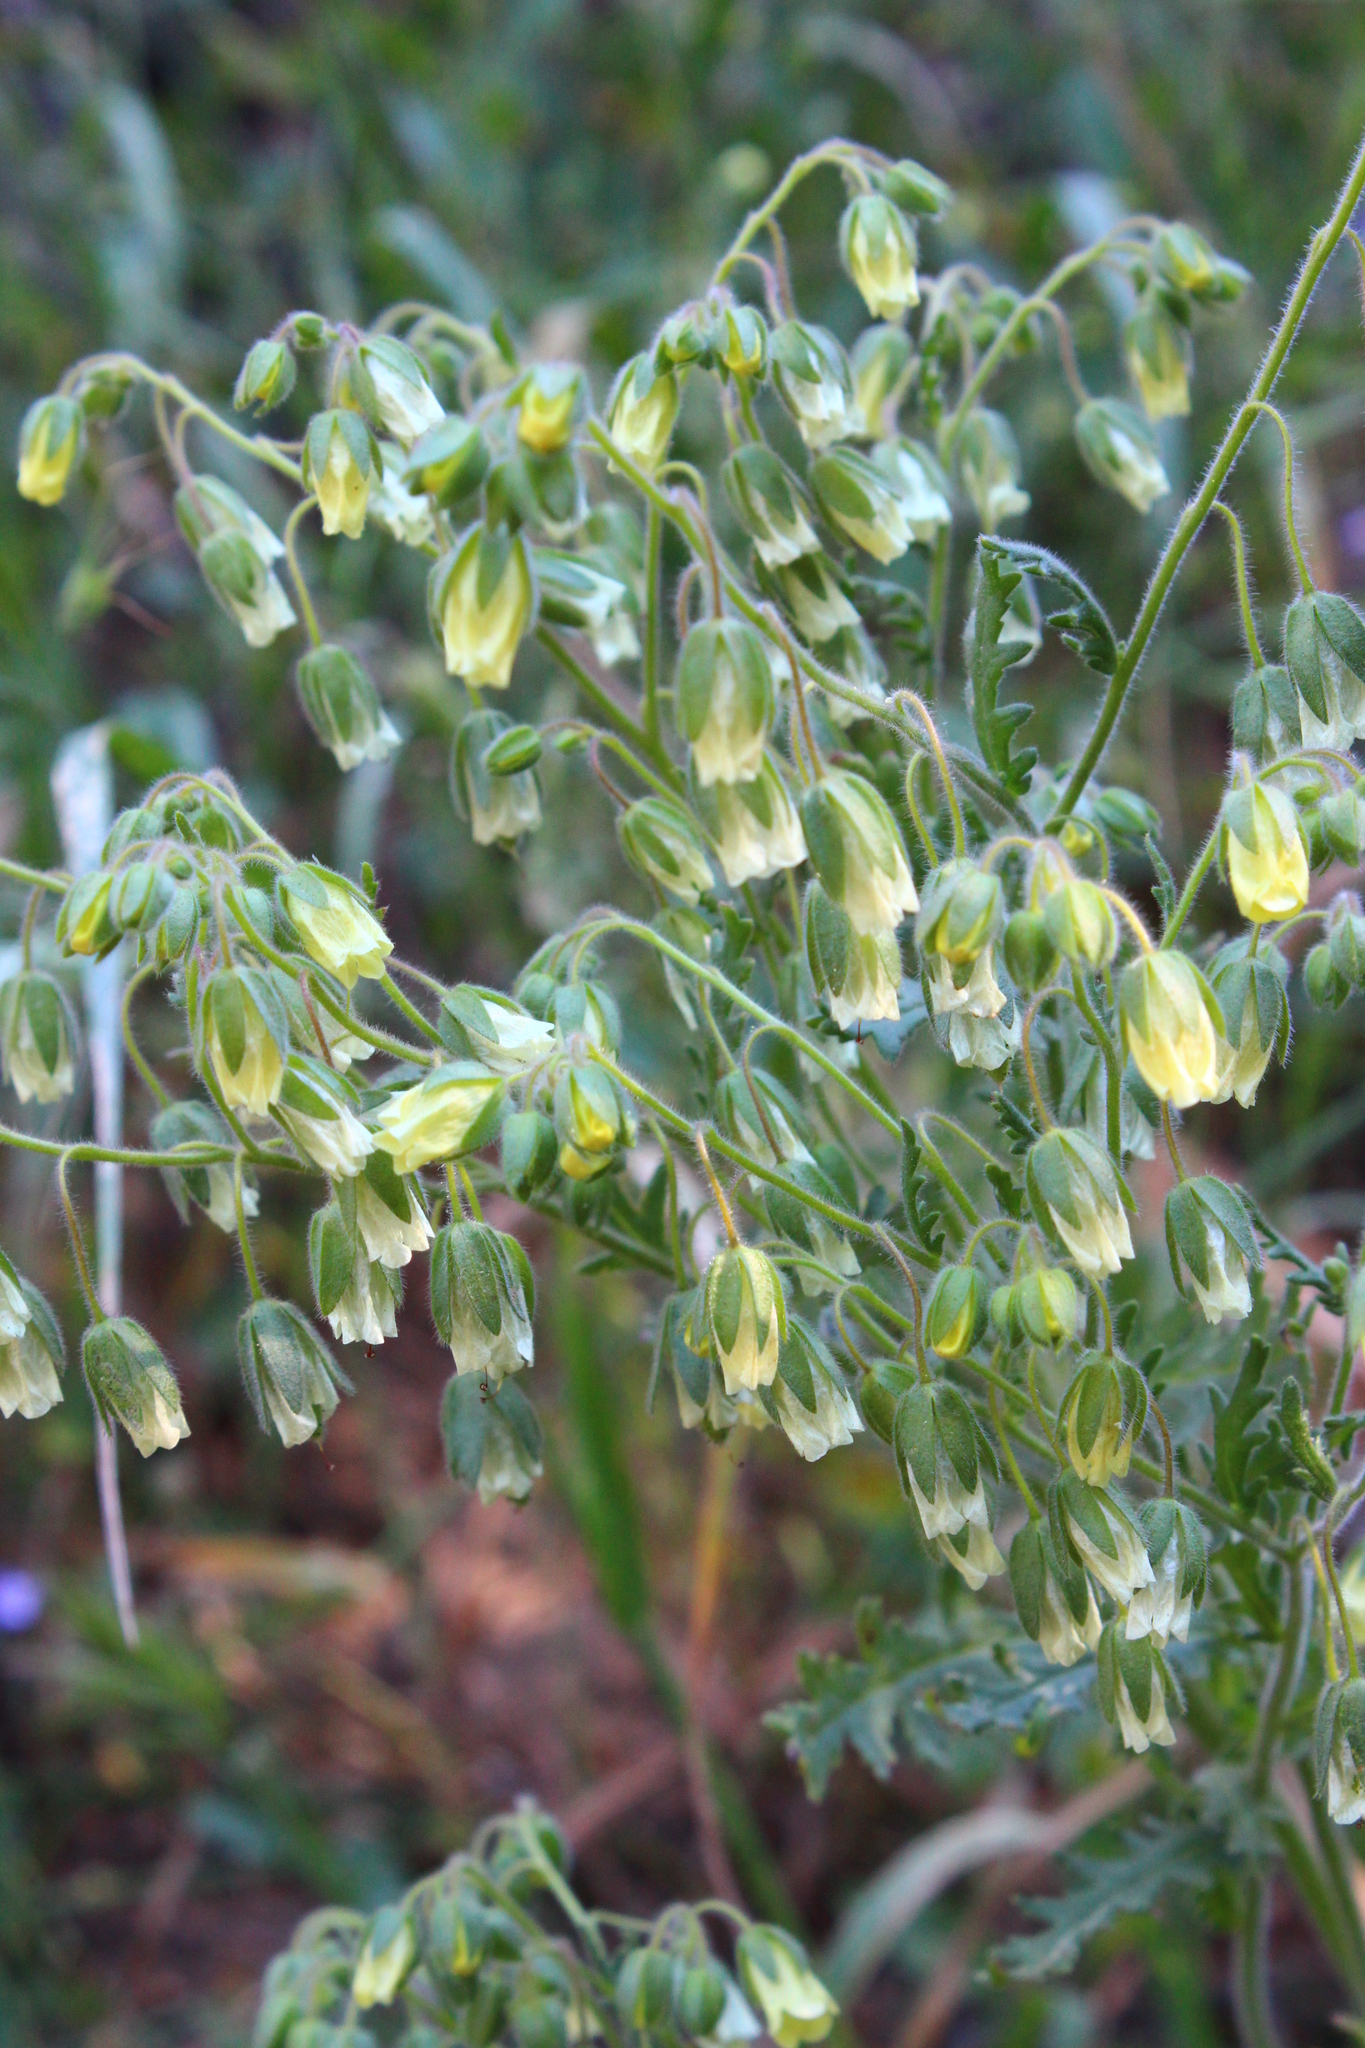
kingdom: Plantae
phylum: Tracheophyta
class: Magnoliopsida
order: Boraginales
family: Hydrophyllaceae
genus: Emmenanthe
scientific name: Emmenanthe penduliflora
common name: Whispering-bells
